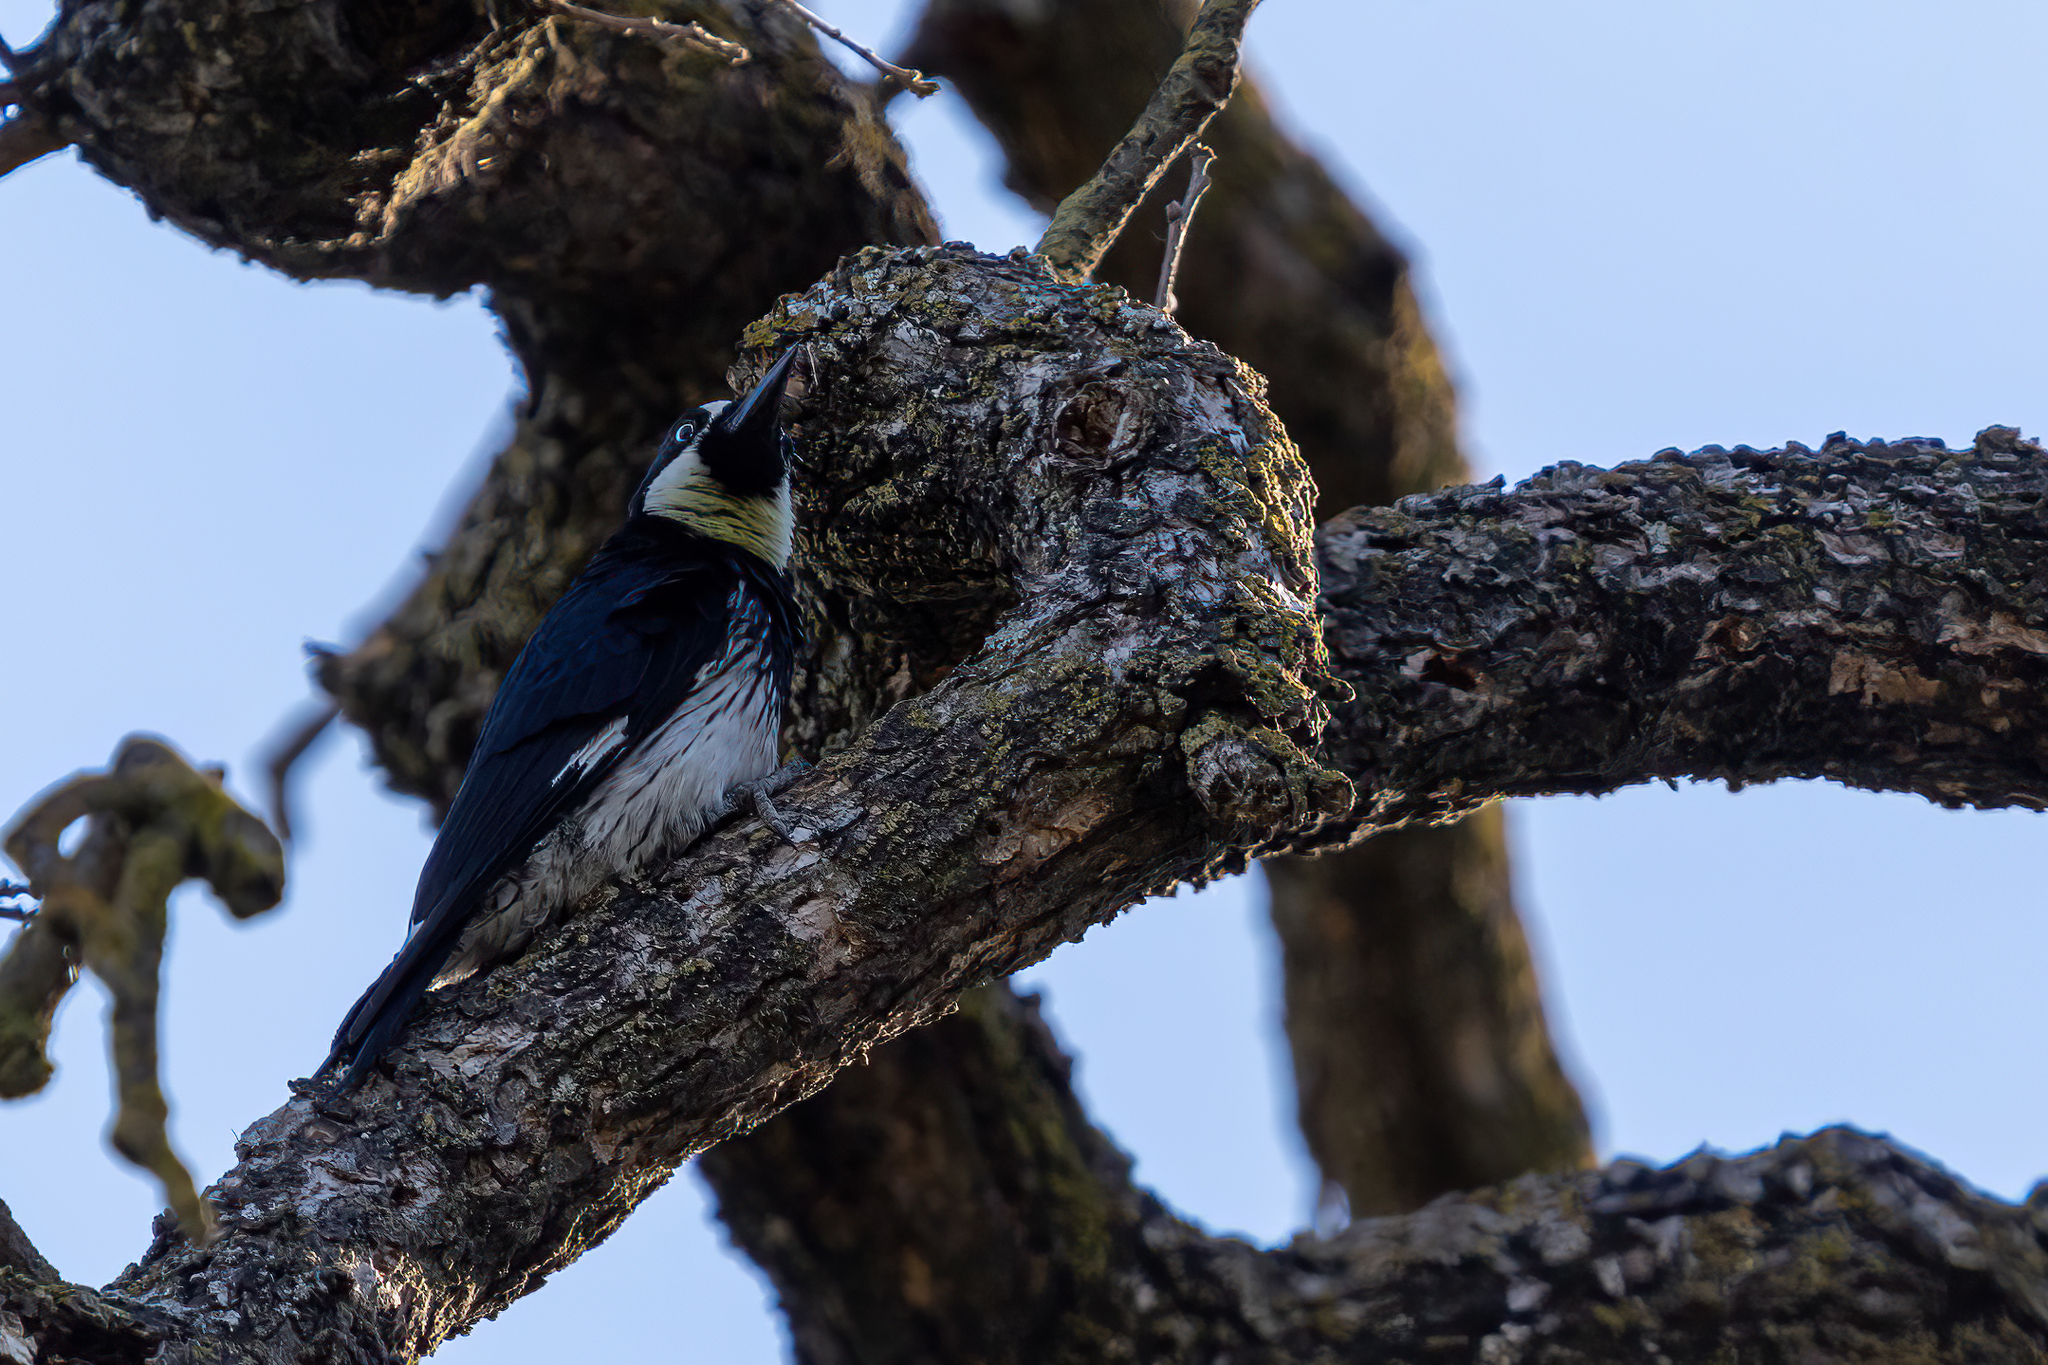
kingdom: Animalia
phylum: Chordata
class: Aves
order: Piciformes
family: Picidae
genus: Melanerpes
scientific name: Melanerpes formicivorus
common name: Acorn woodpecker
